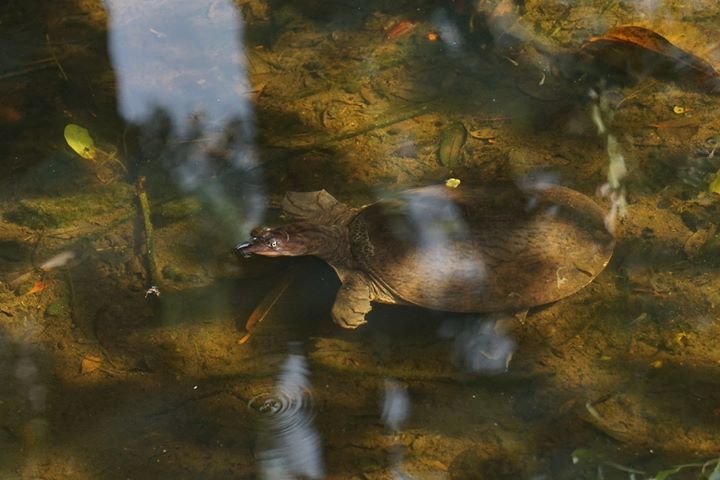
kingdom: Animalia
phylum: Chordata
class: Testudines
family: Trionychidae
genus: Apalone
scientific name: Apalone ferox
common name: Florida softshell turtle
